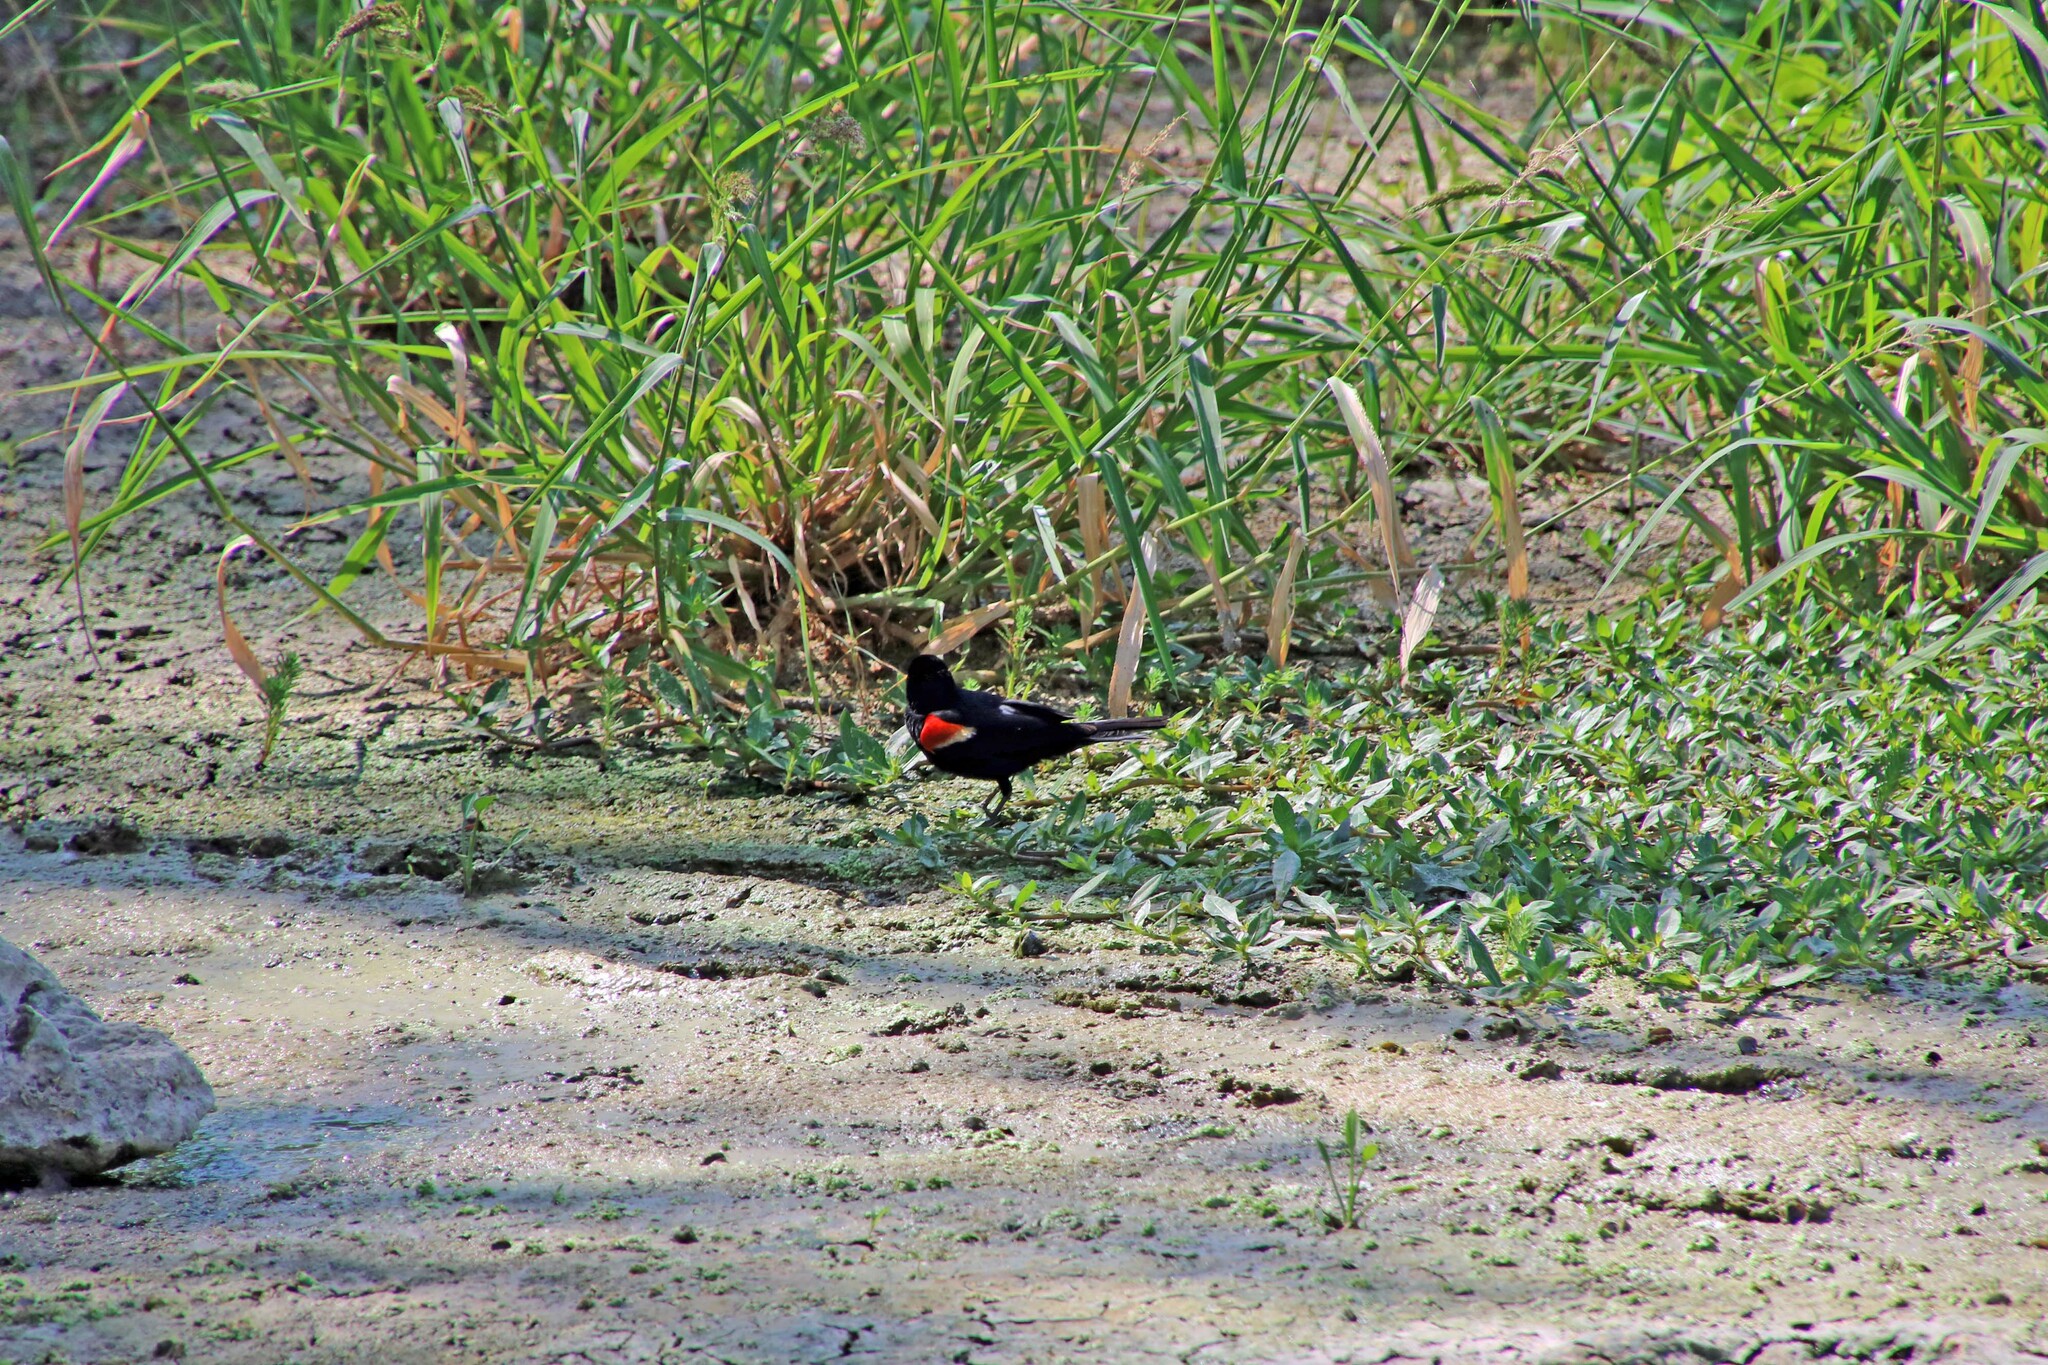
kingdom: Animalia
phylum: Chordata
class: Aves
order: Passeriformes
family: Icteridae
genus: Agelaius
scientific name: Agelaius phoeniceus
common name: Red-winged blackbird
